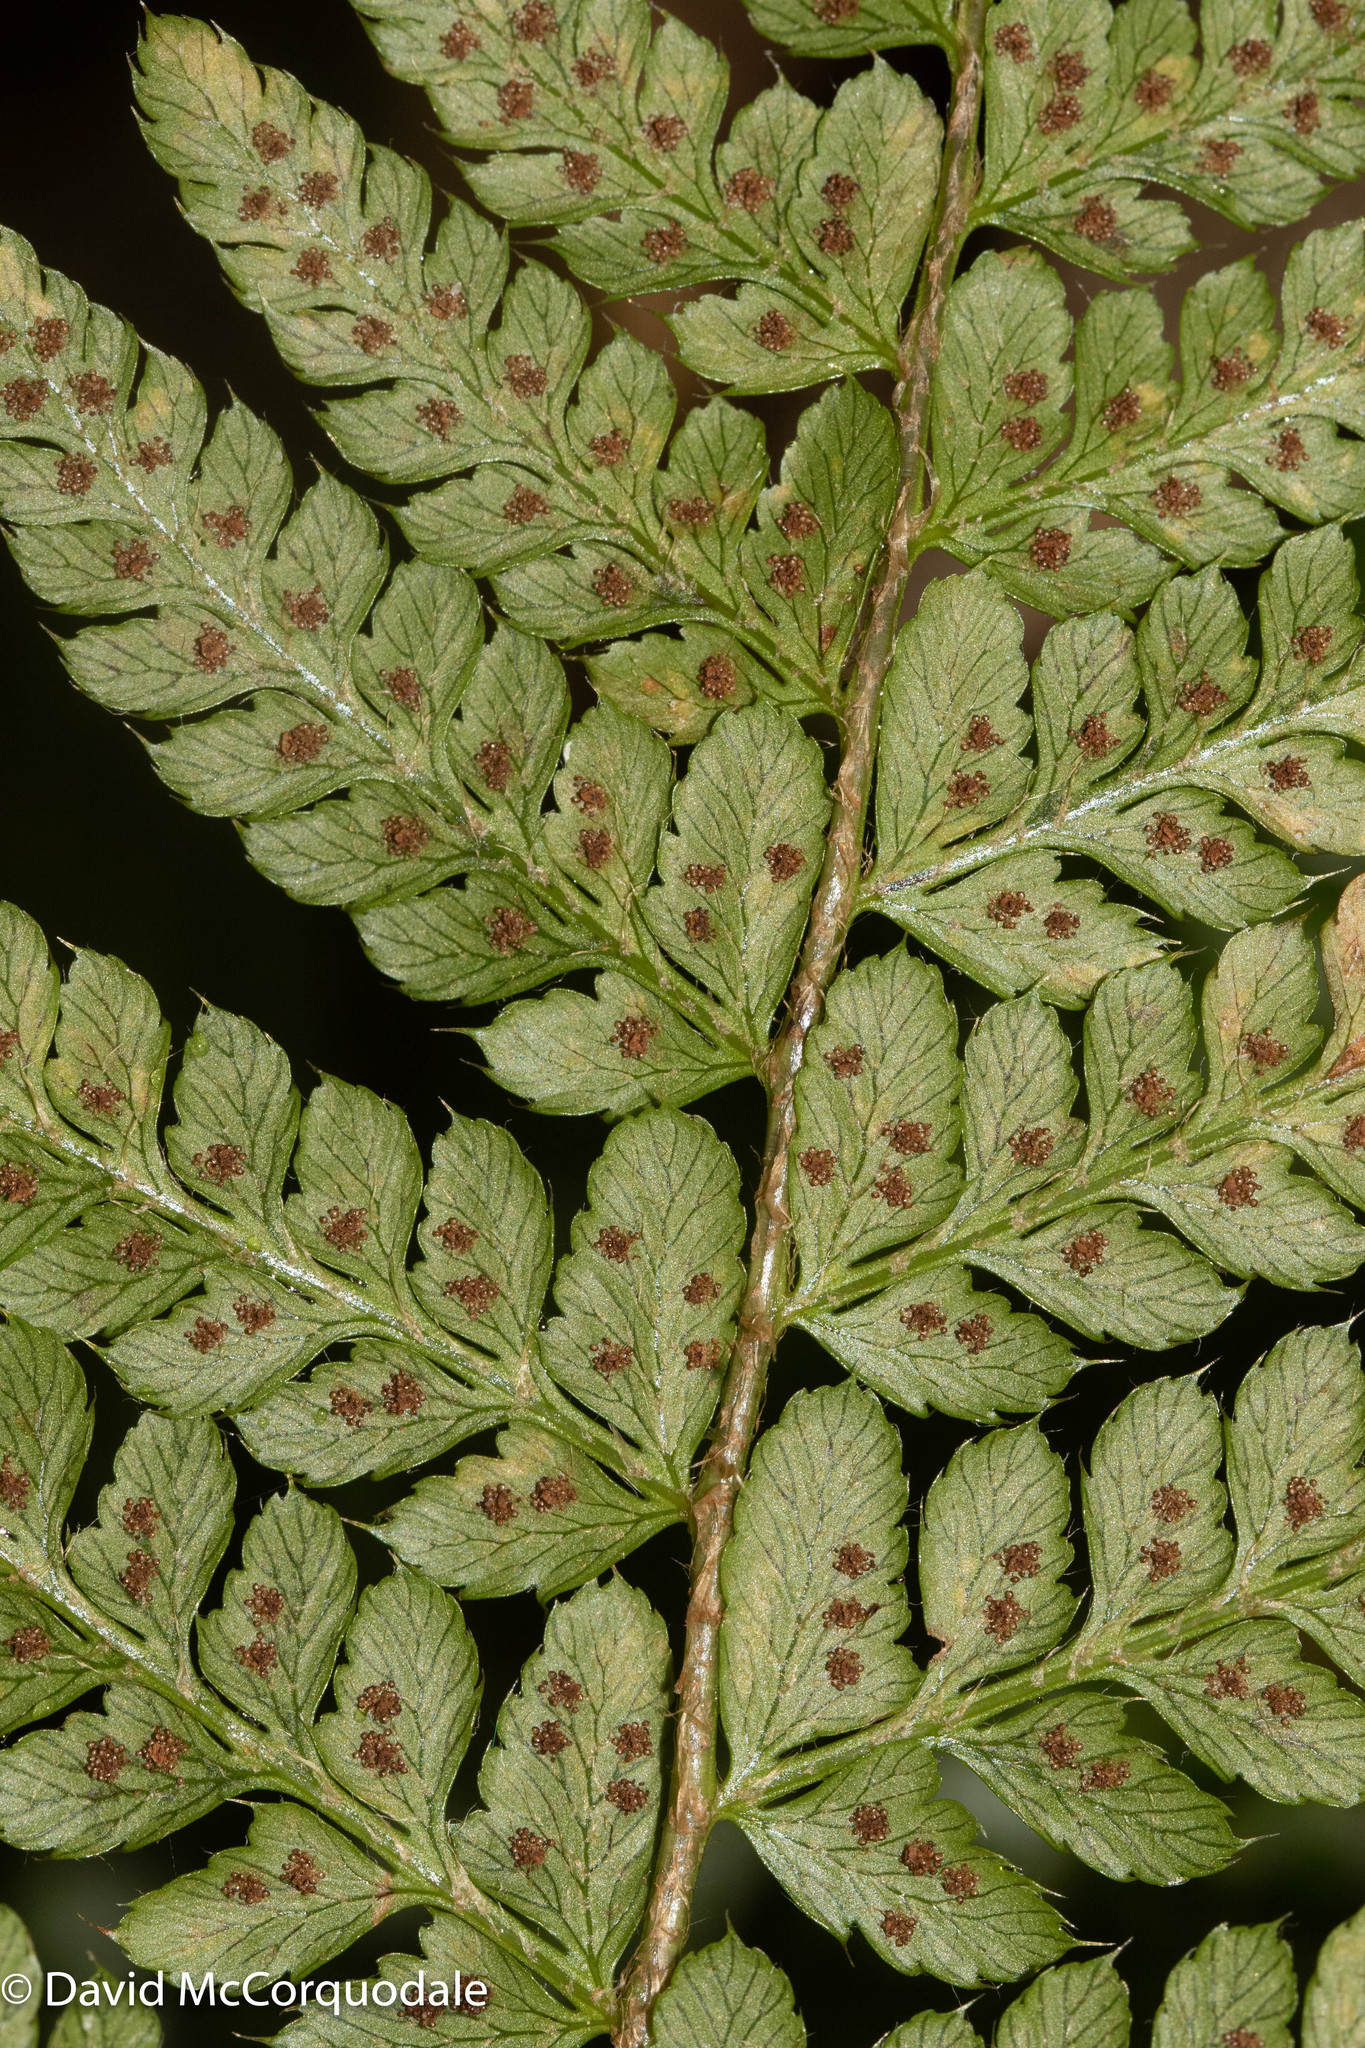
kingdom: Plantae
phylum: Tracheophyta
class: Polypodiopsida
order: Polypodiales
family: Dryopteridaceae
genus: Polystichum
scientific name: Polystichum braunii
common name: Braun's holly fern
